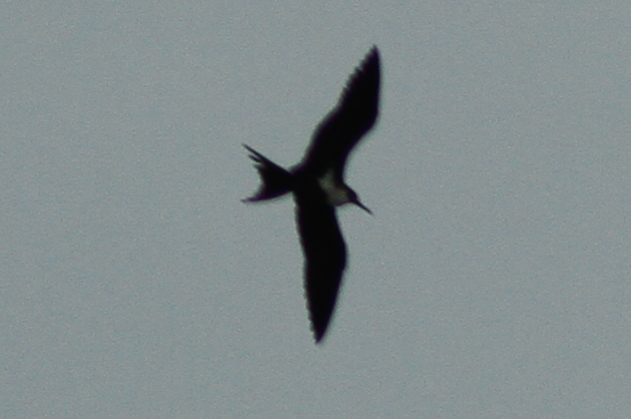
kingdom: Animalia
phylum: Chordata
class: Aves
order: Suliformes
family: Fregatidae
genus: Fregata
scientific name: Fregata ariel
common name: Lesser frigatebird
